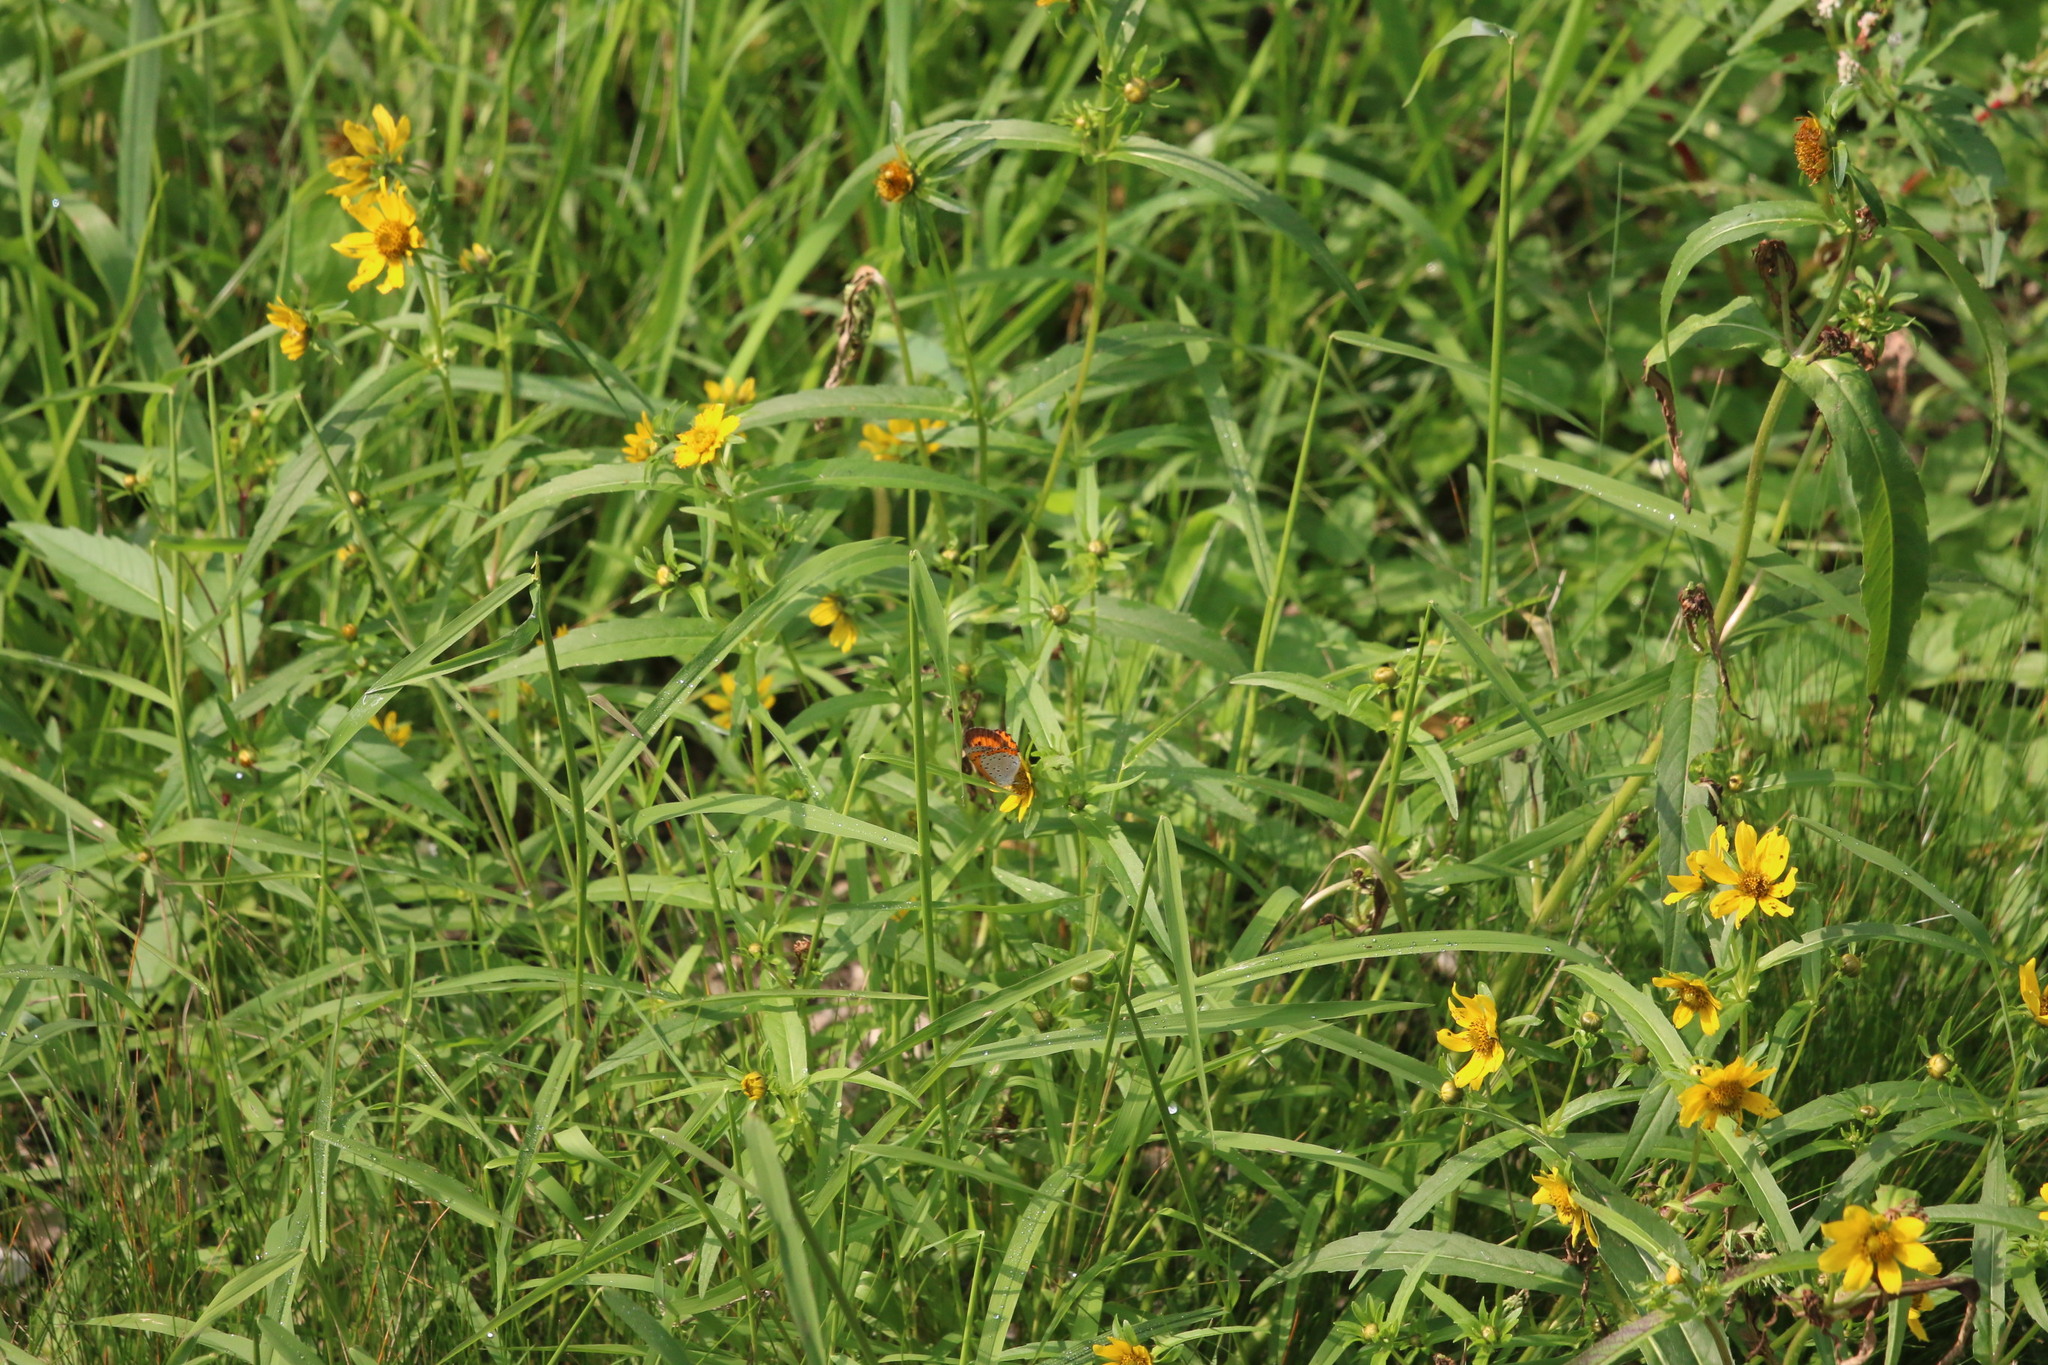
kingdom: Animalia
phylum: Arthropoda
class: Insecta
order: Lepidoptera
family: Lycaenidae
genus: Tharsalea
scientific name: Tharsalea hyllus
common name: Bronze copper
